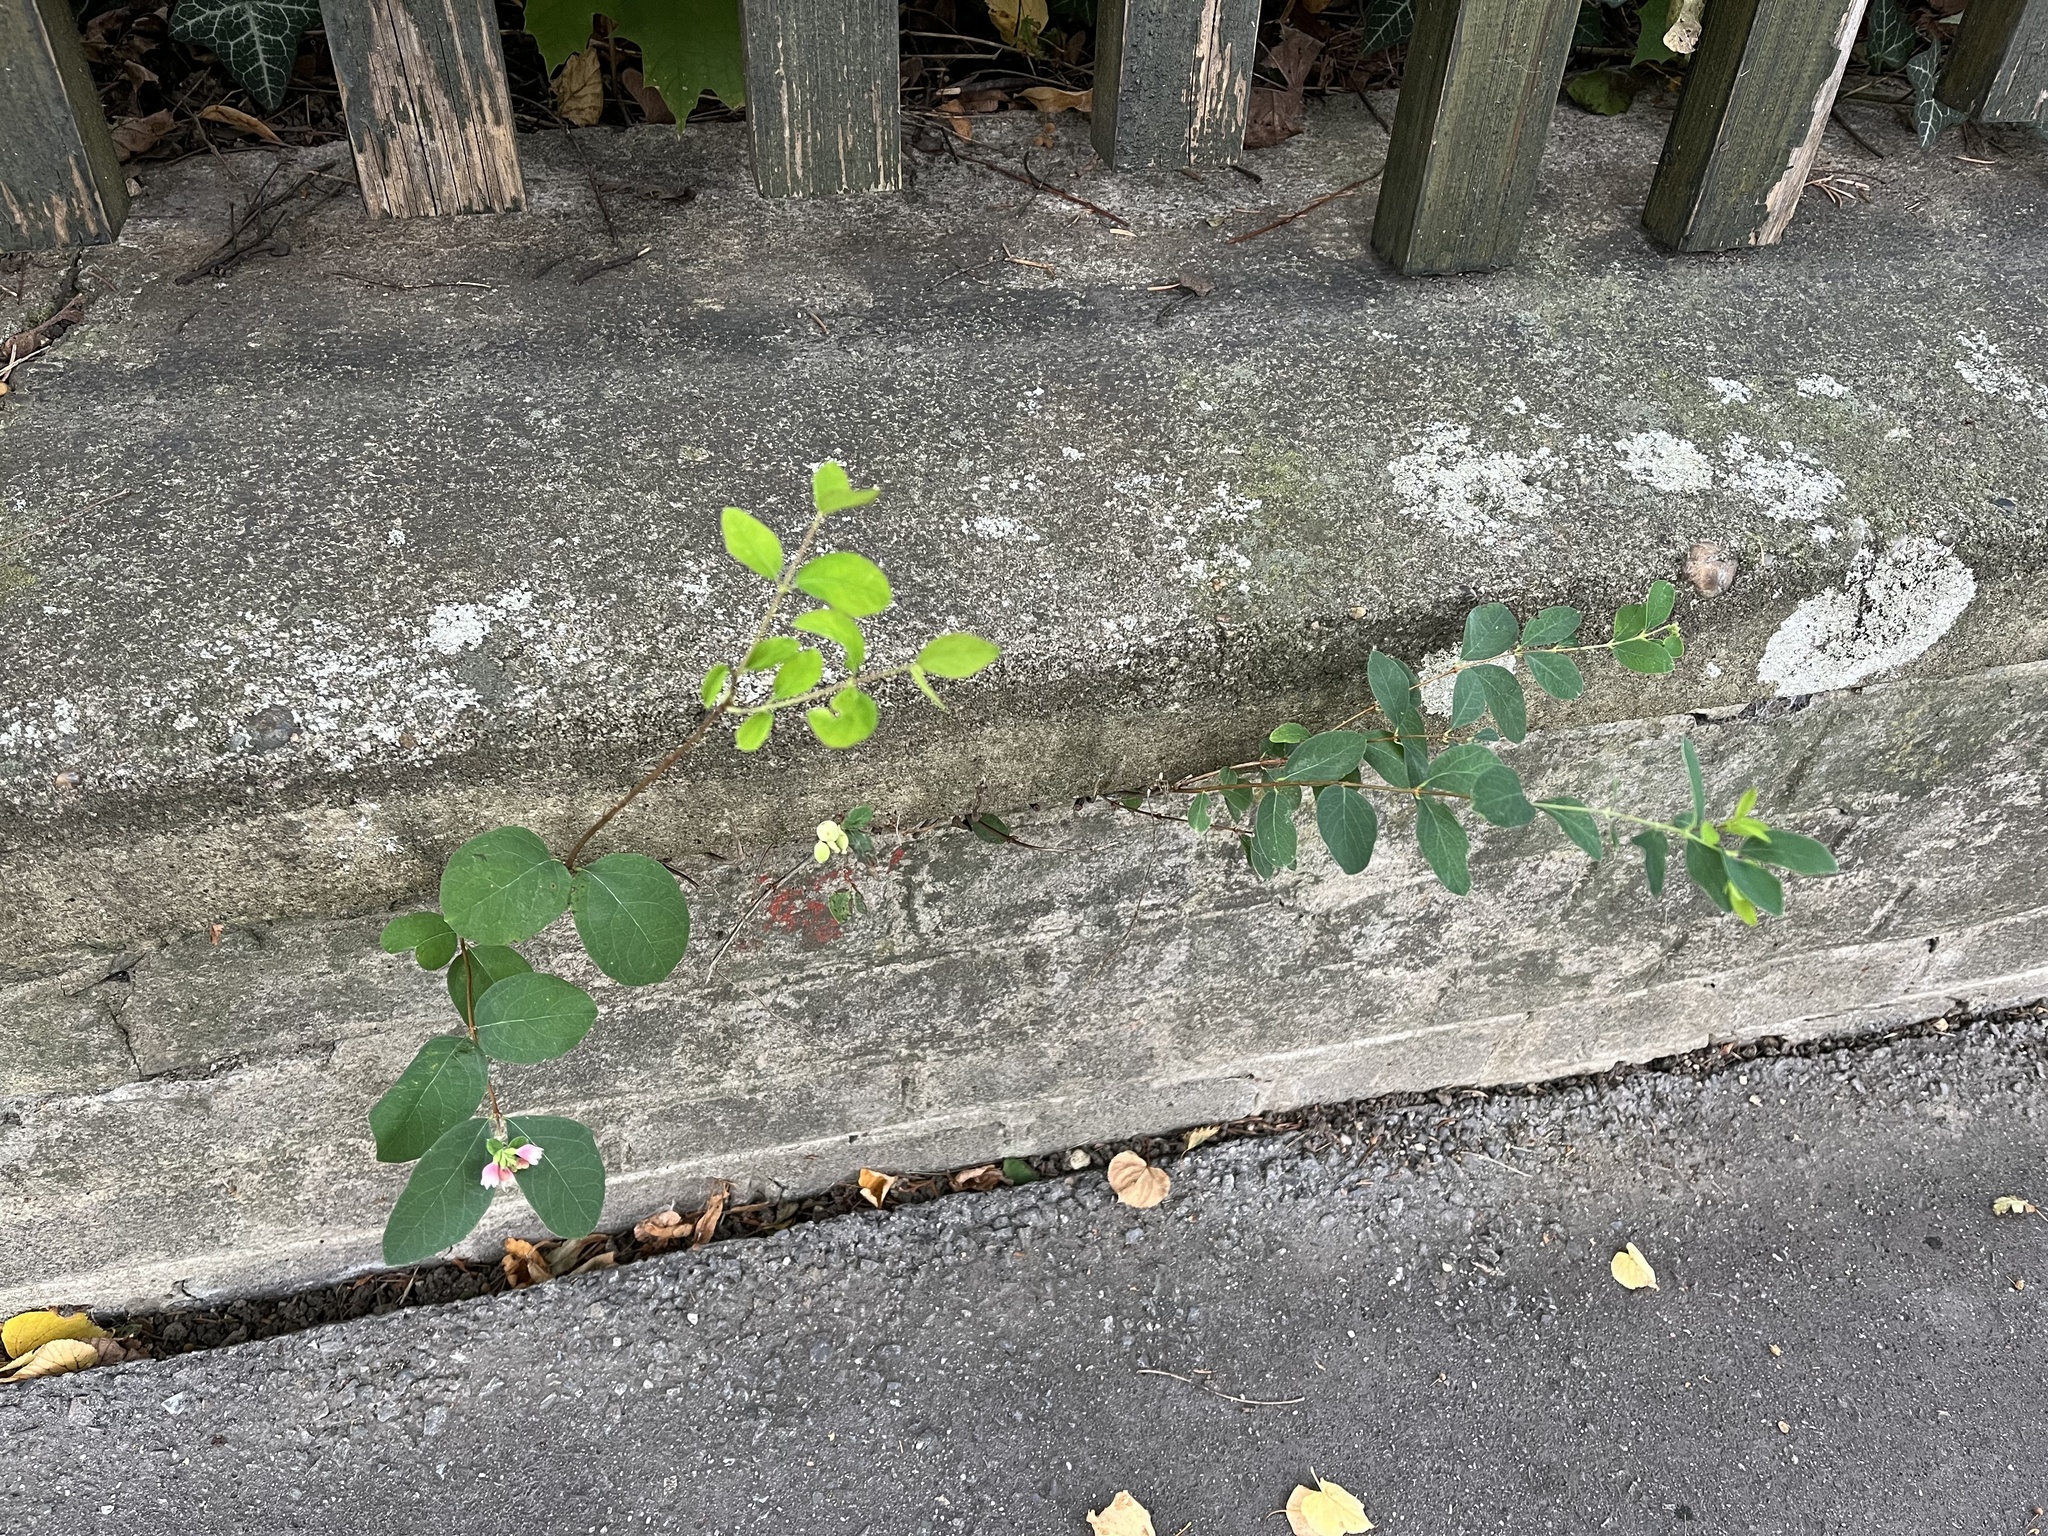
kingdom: Plantae
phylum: Tracheophyta
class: Magnoliopsida
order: Dipsacales
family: Caprifoliaceae
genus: Symphoricarpos
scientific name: Symphoricarpos albus
